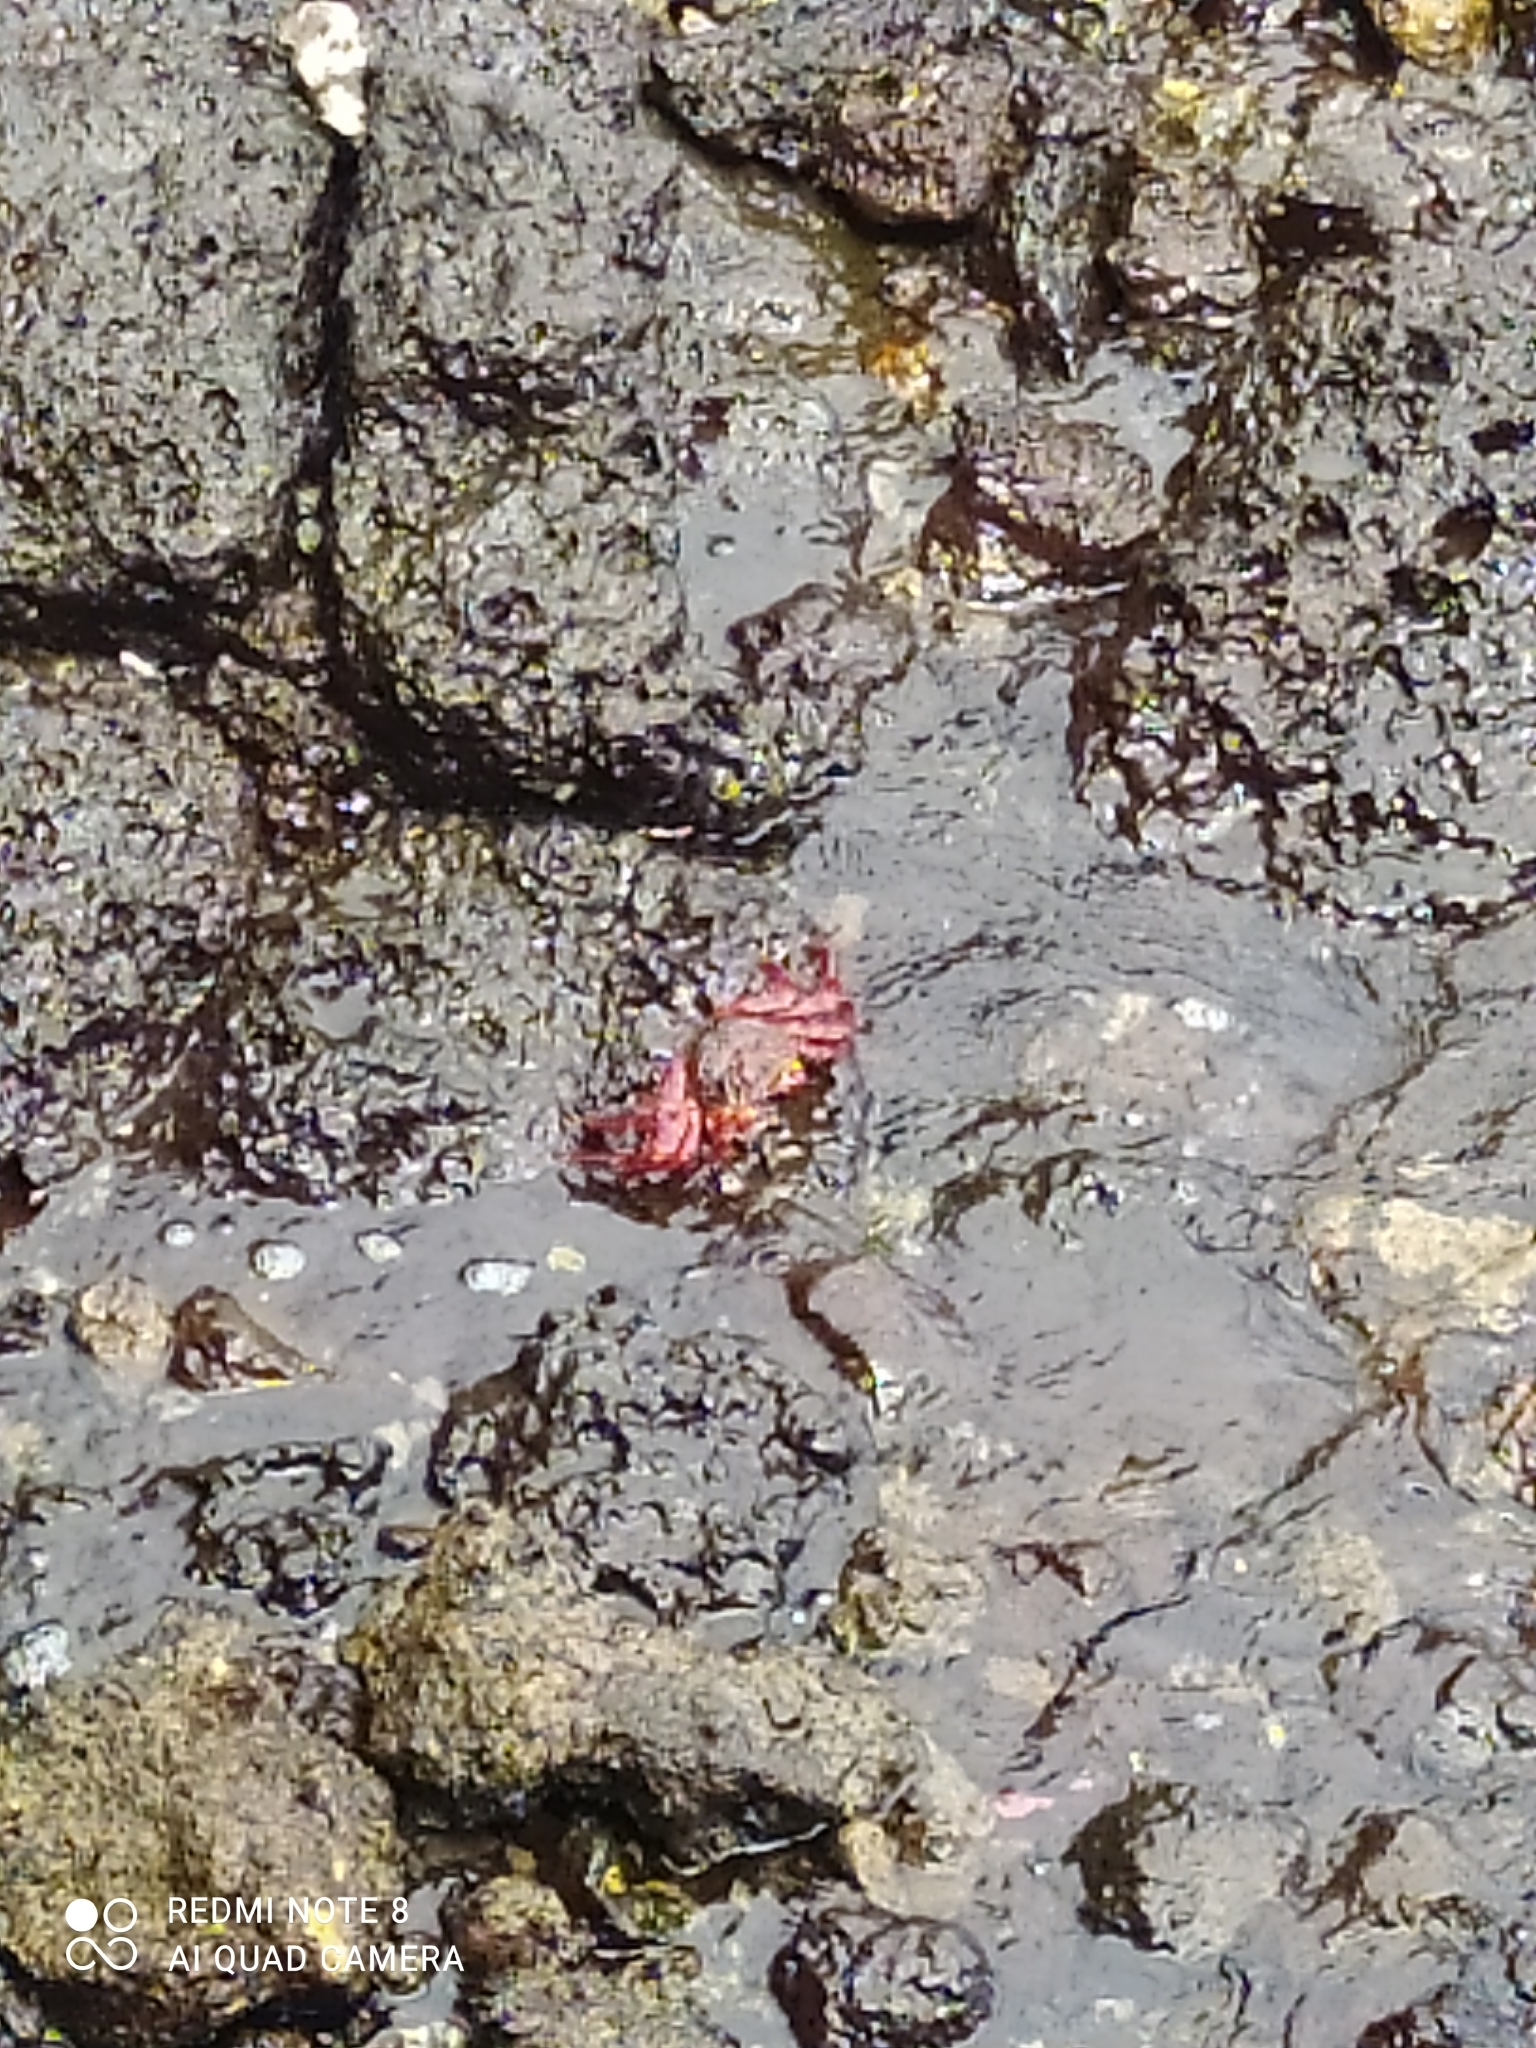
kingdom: Animalia
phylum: Arthropoda
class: Malacostraca
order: Decapoda
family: Grapsidae
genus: Grapsus
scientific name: Grapsus grapsus
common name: Sally lightfoot
